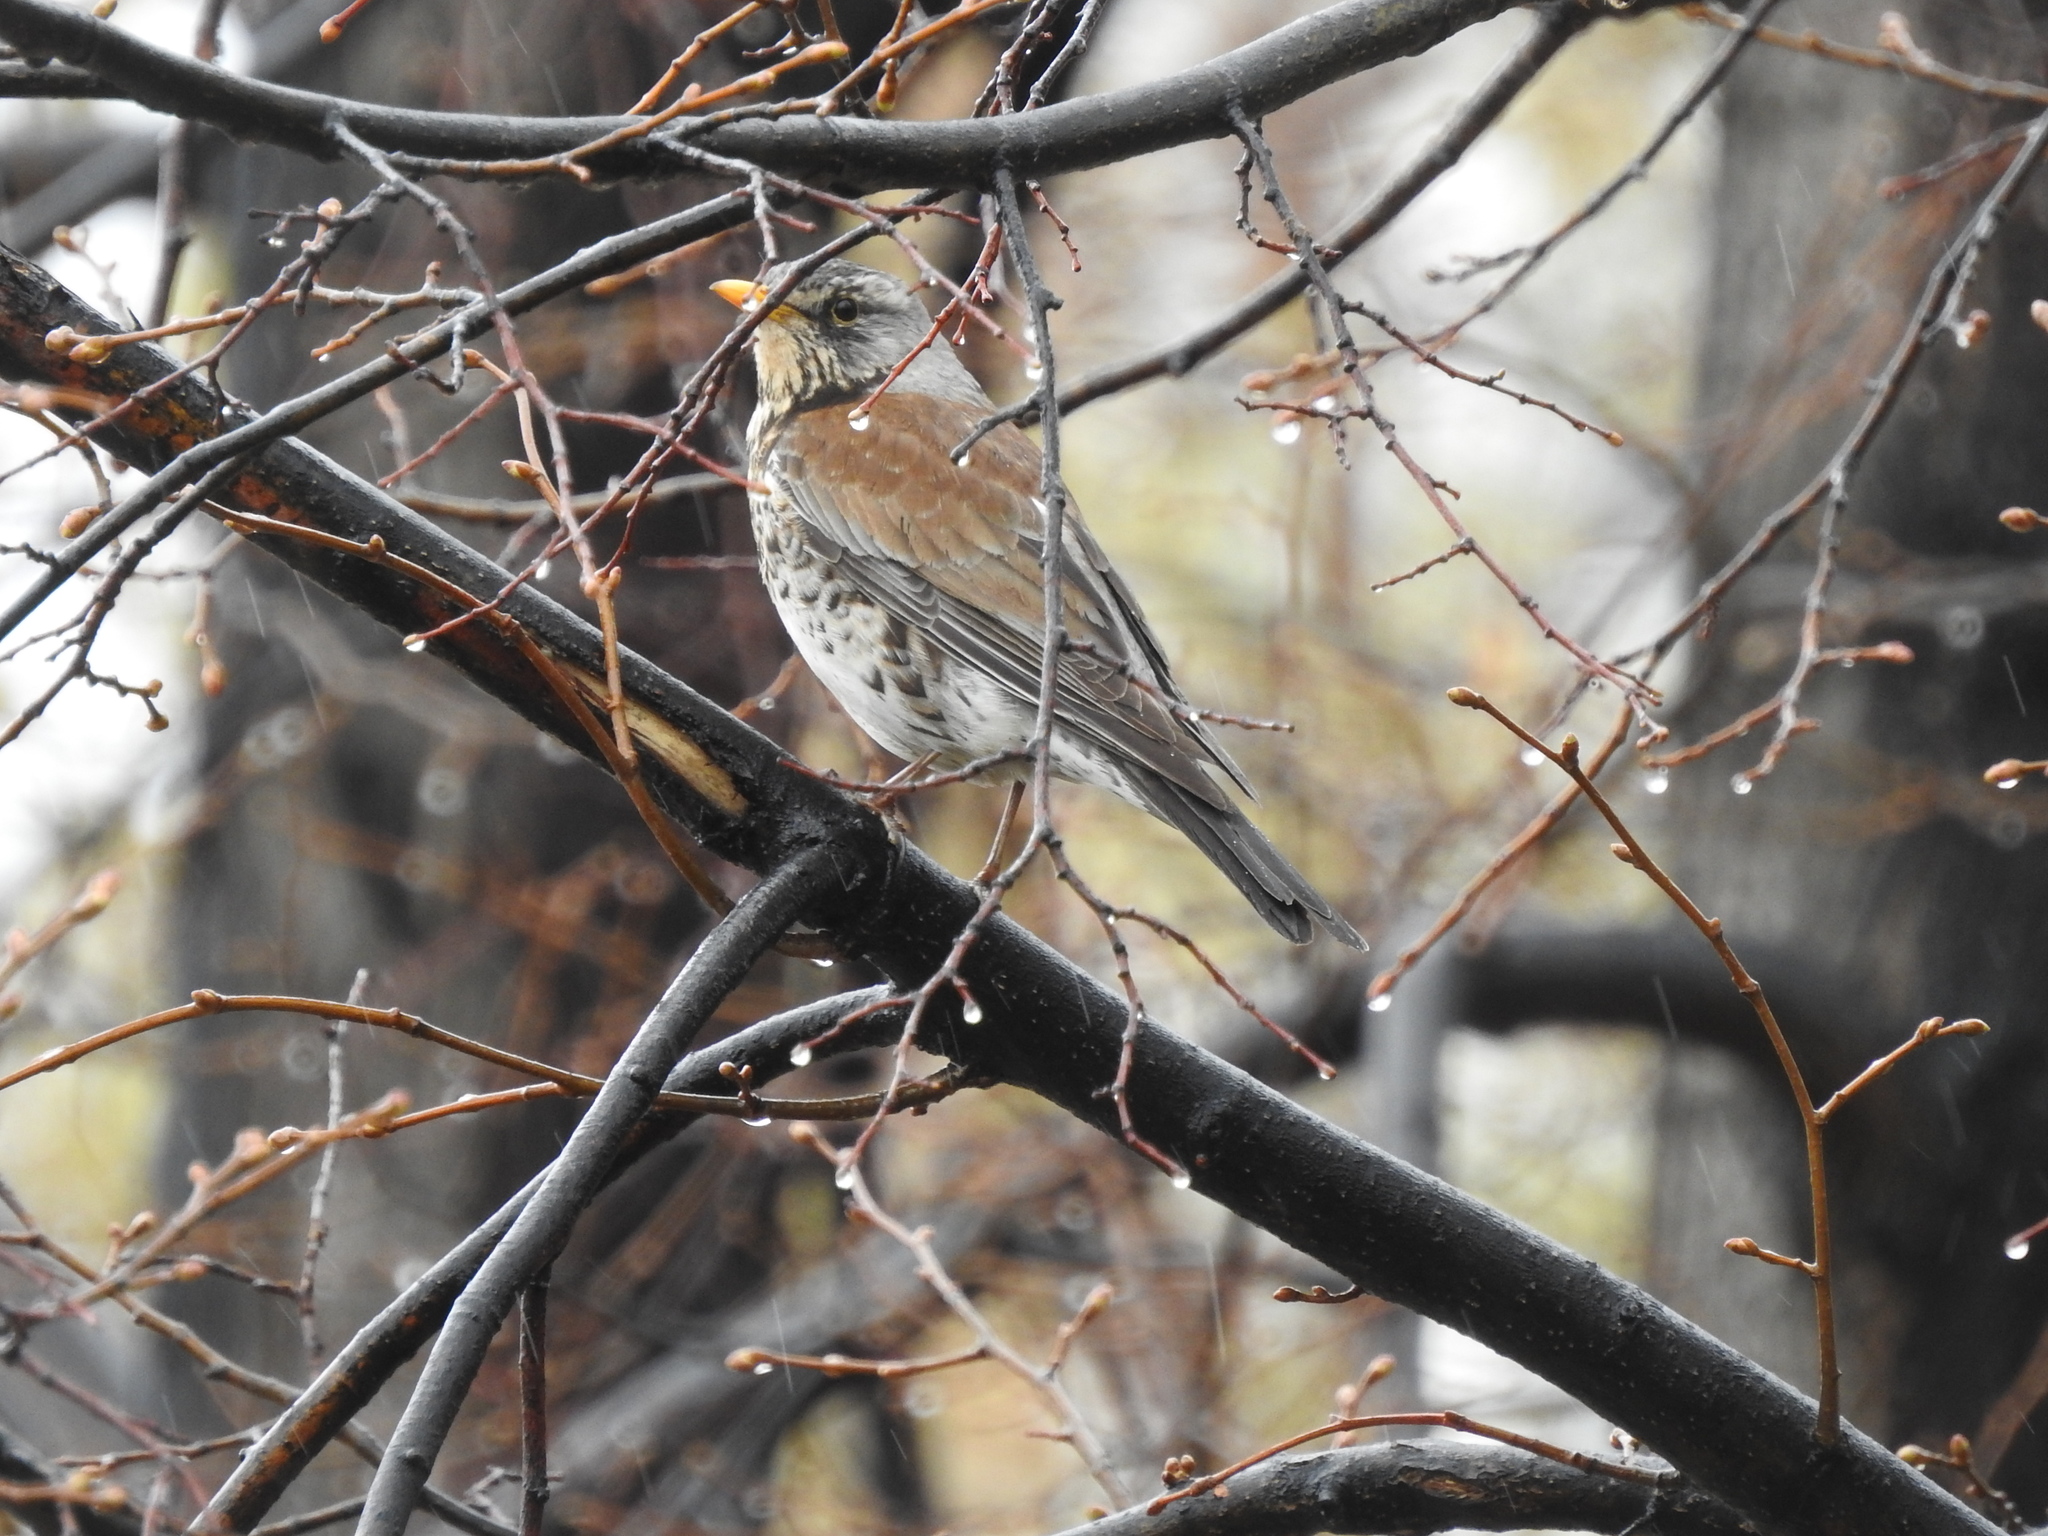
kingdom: Animalia
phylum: Chordata
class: Aves
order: Passeriformes
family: Turdidae
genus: Turdus
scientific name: Turdus pilaris
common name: Fieldfare
